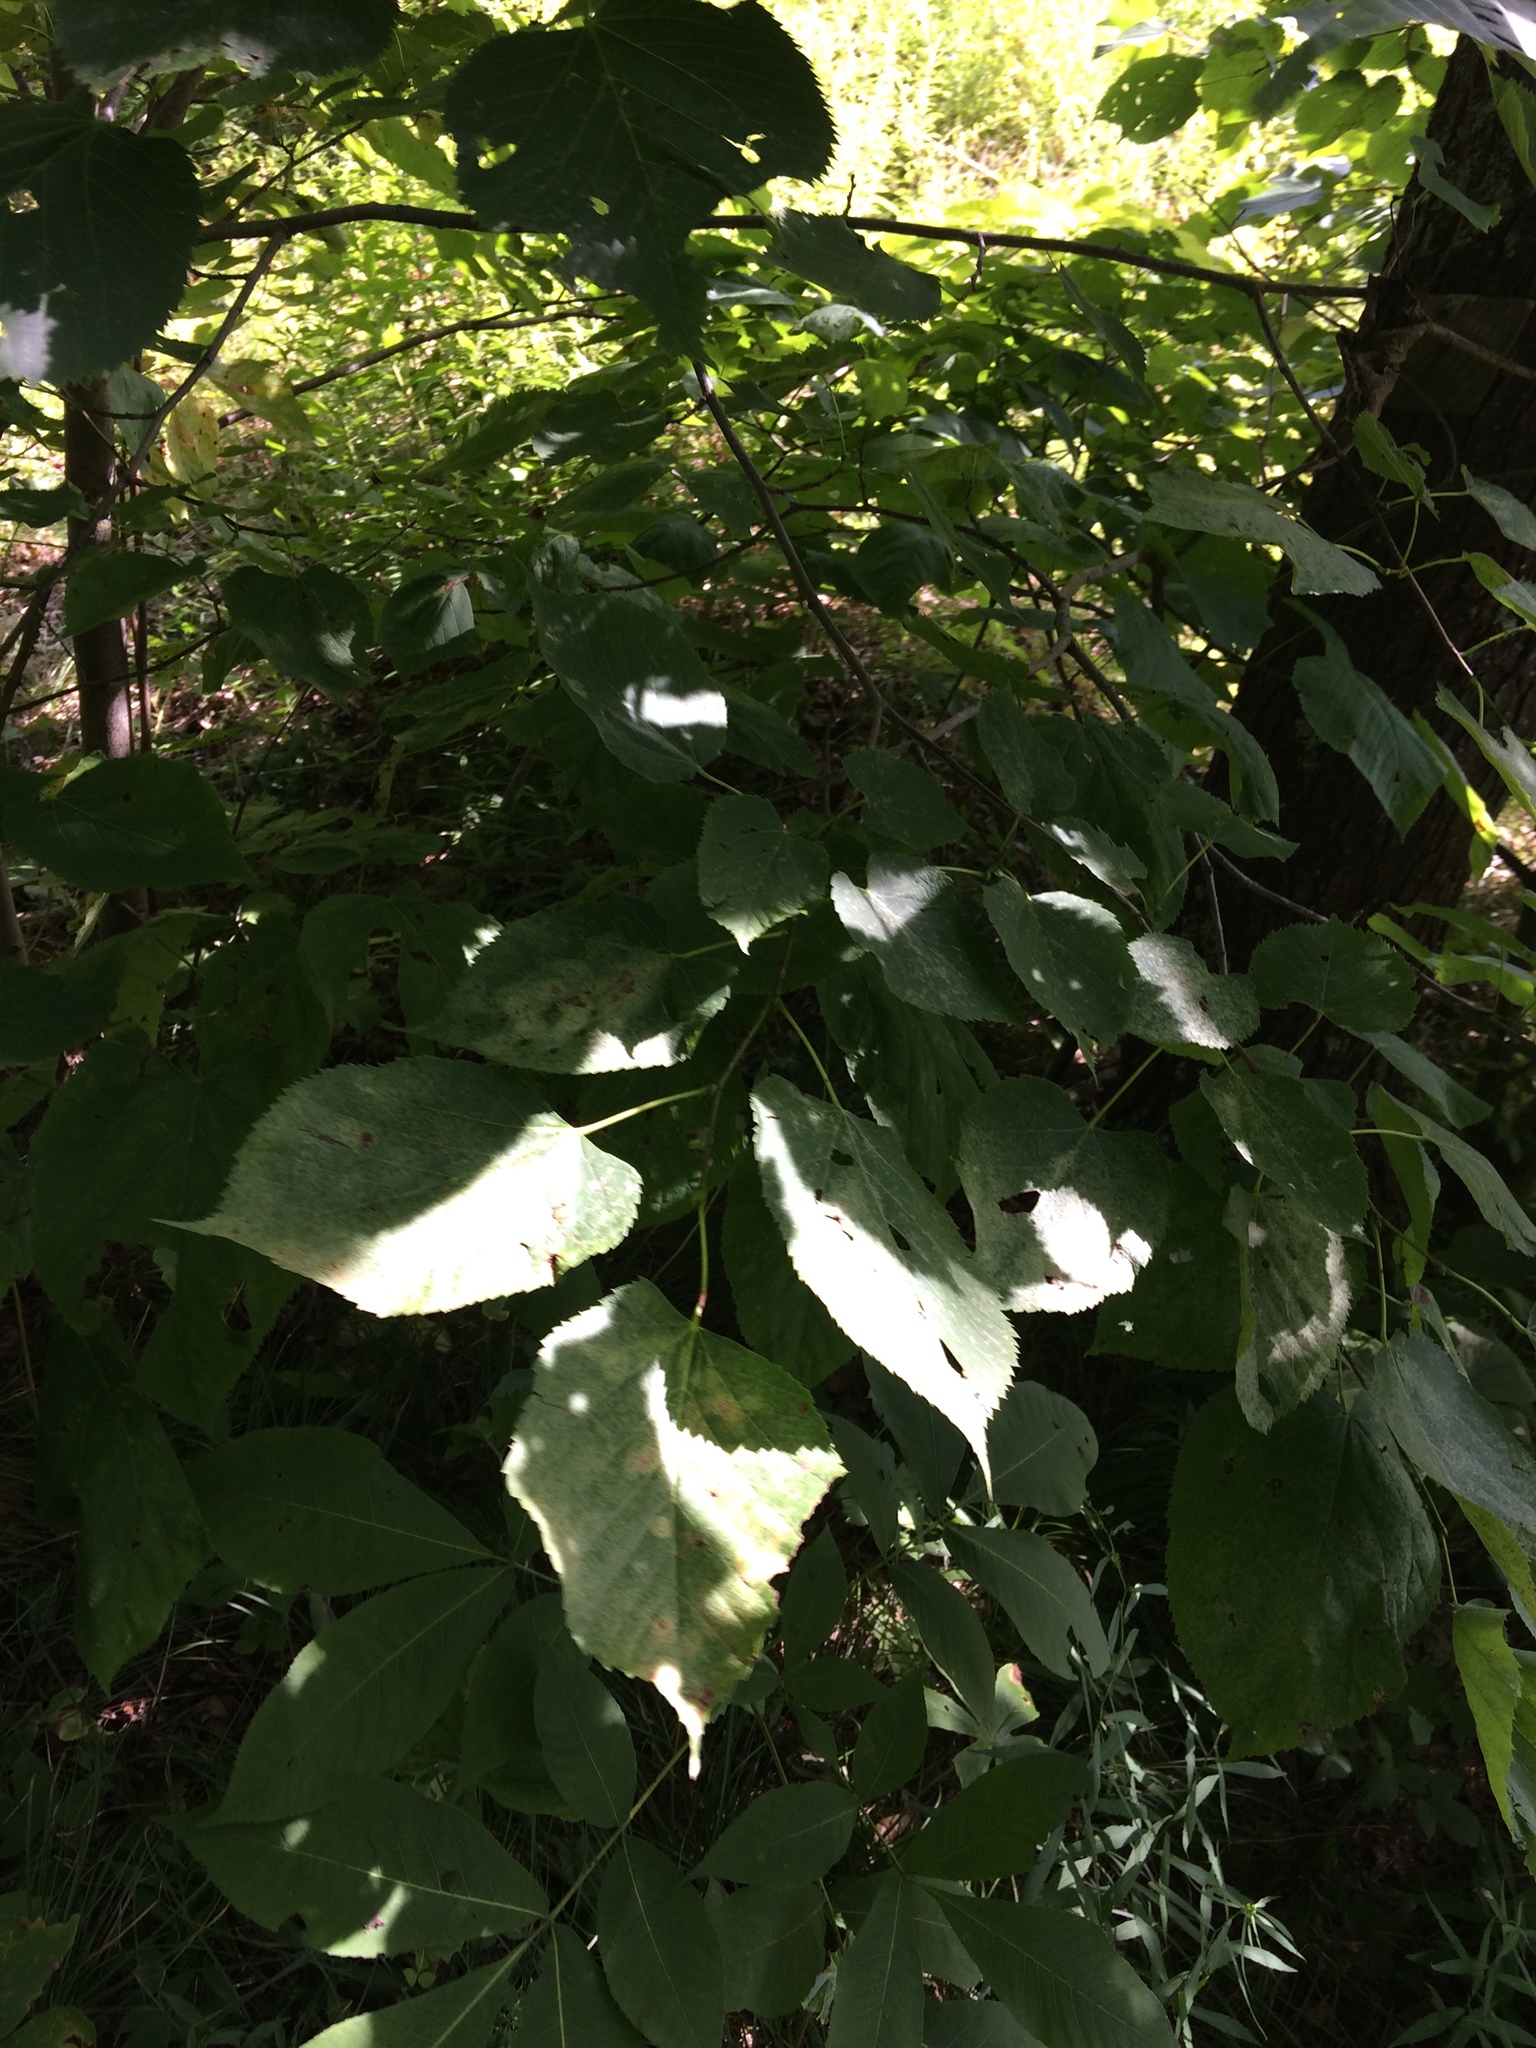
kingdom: Plantae
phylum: Tracheophyta
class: Magnoliopsida
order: Malvales
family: Malvaceae
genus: Tilia
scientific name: Tilia americana
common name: Basswood
